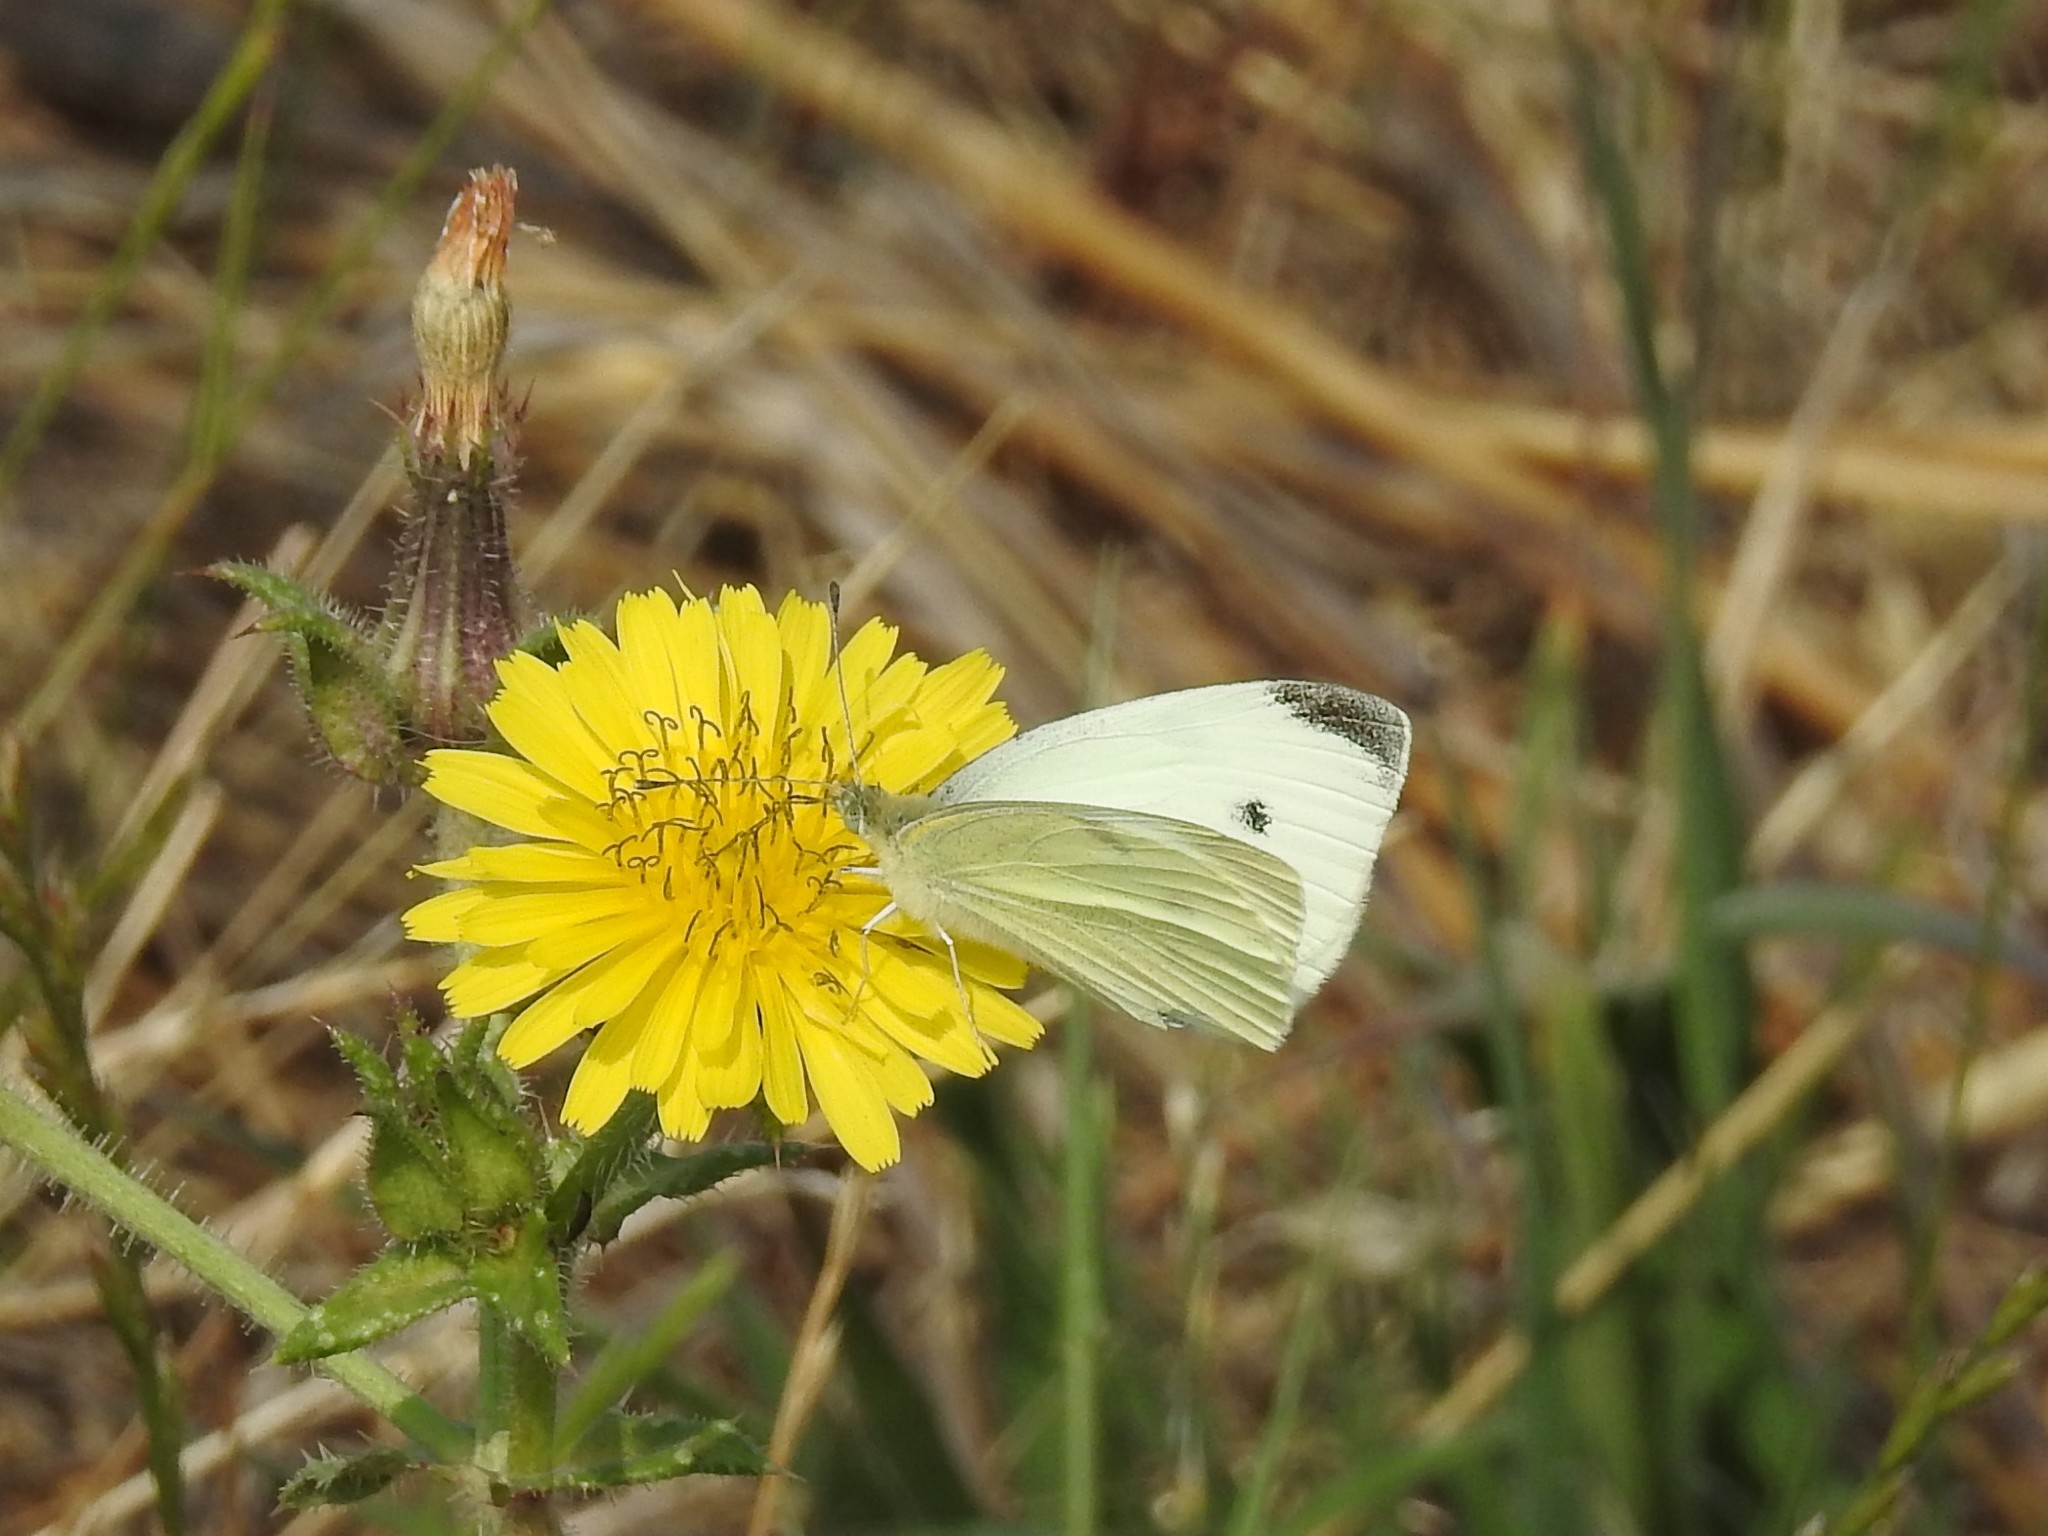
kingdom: Animalia
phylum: Arthropoda
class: Insecta
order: Lepidoptera
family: Pieridae
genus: Pieris
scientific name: Pieris rapae
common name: Small white
